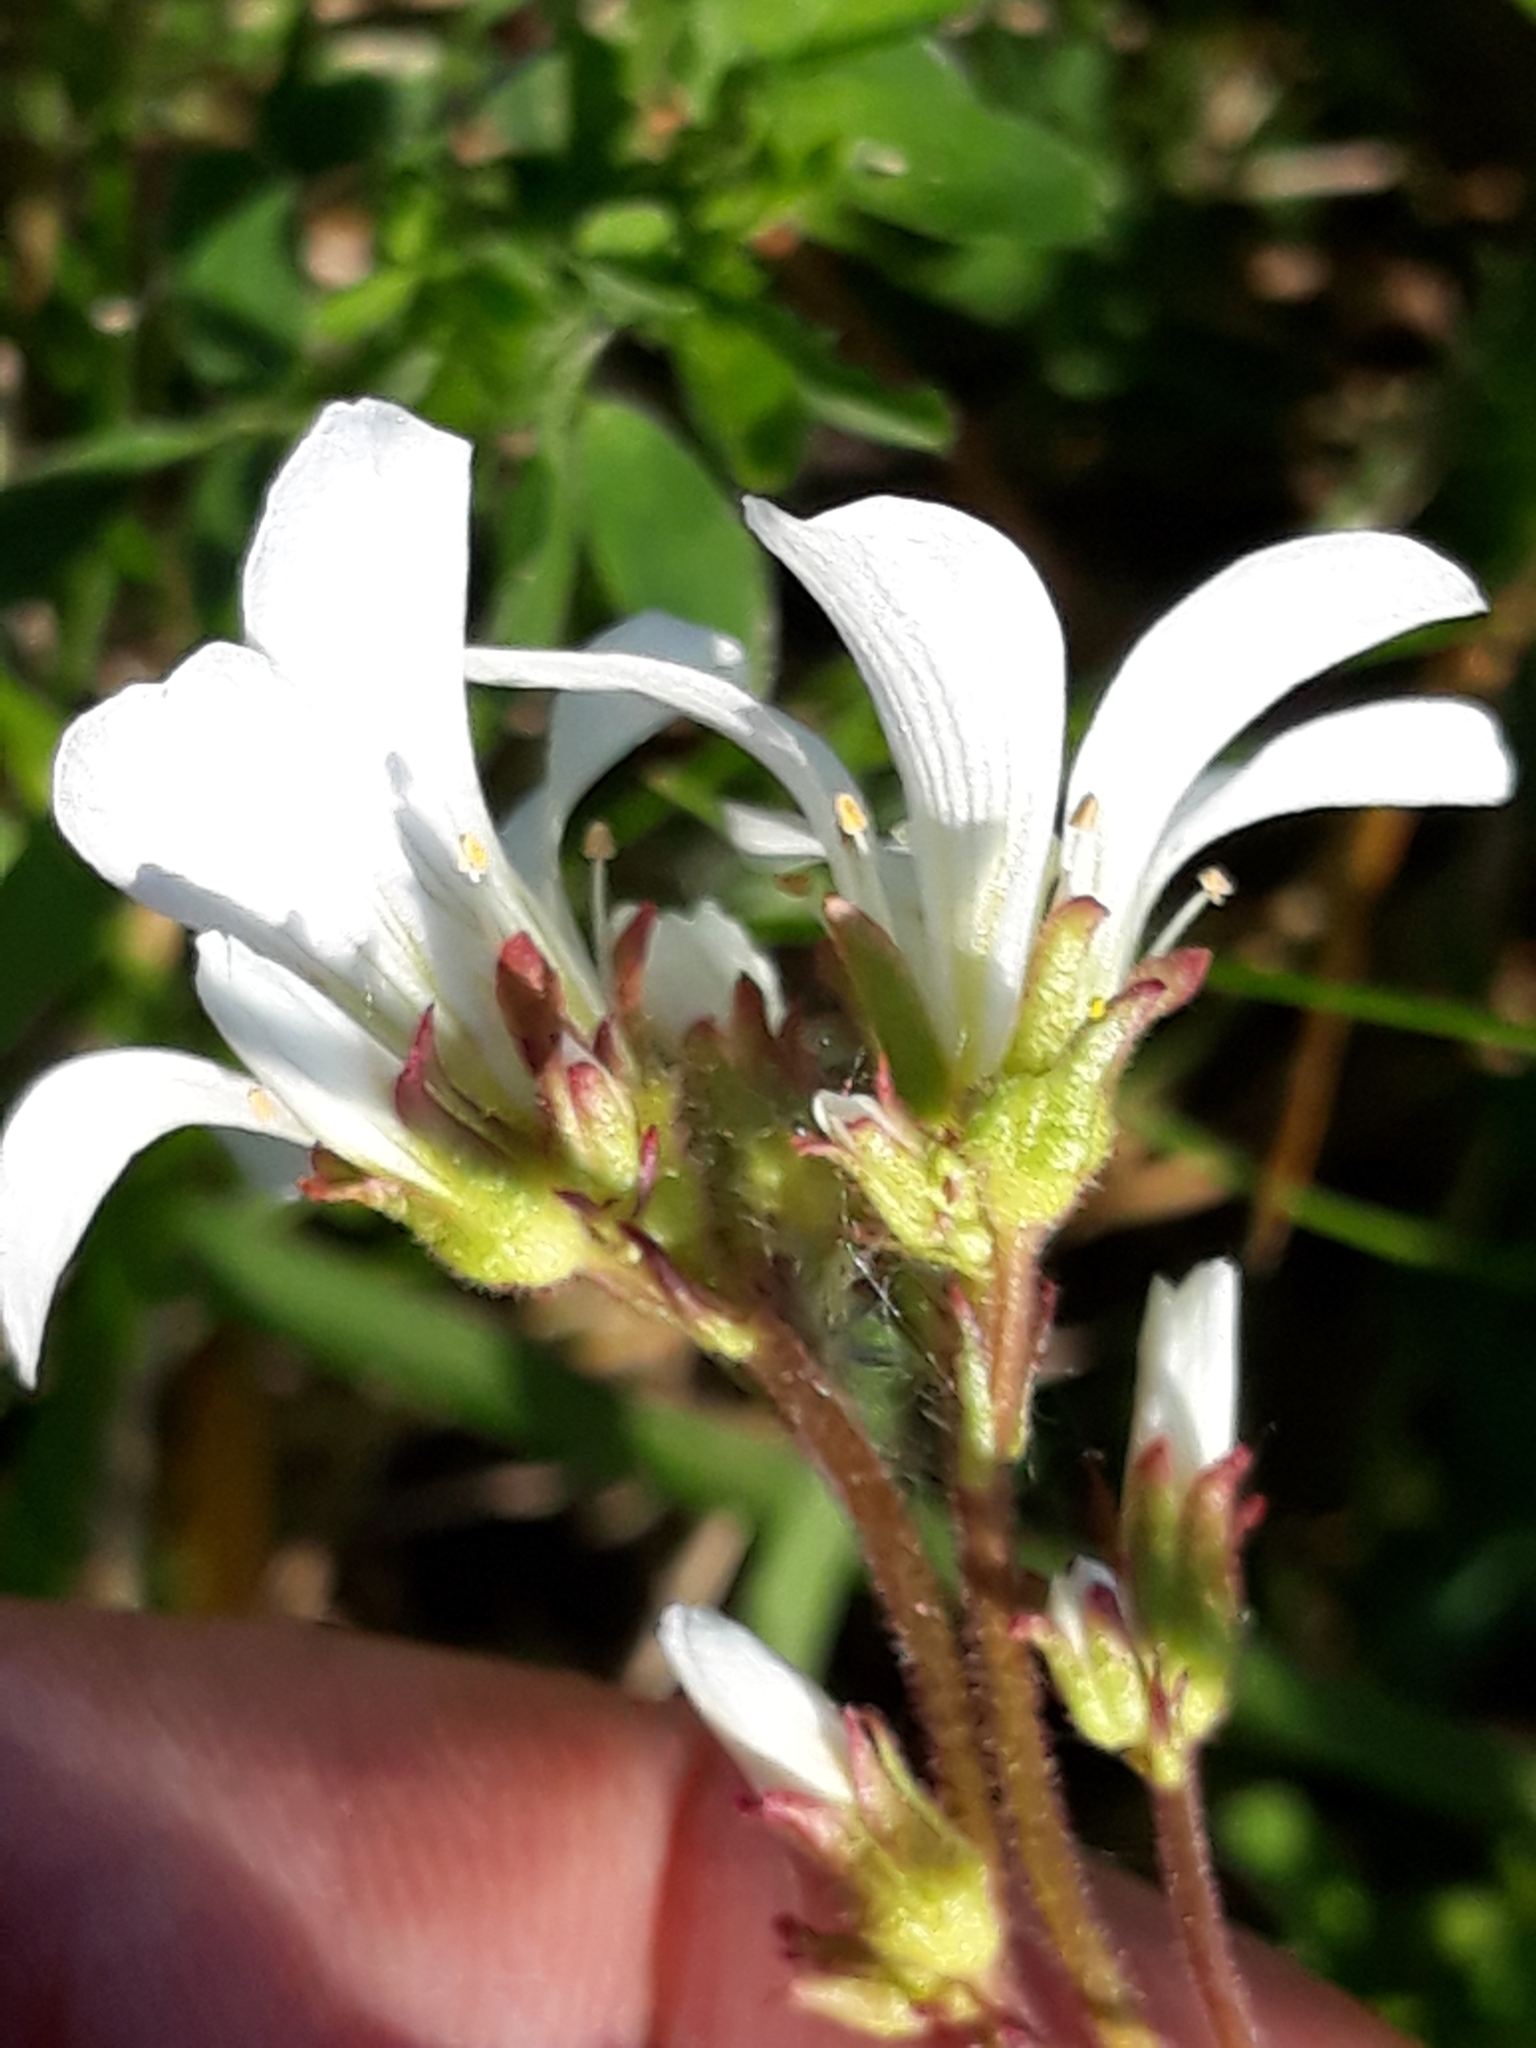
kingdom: Plantae
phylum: Tracheophyta
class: Magnoliopsida
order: Caryophyllales
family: Caryophyllaceae
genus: Rabelera
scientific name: Rabelera holostea
